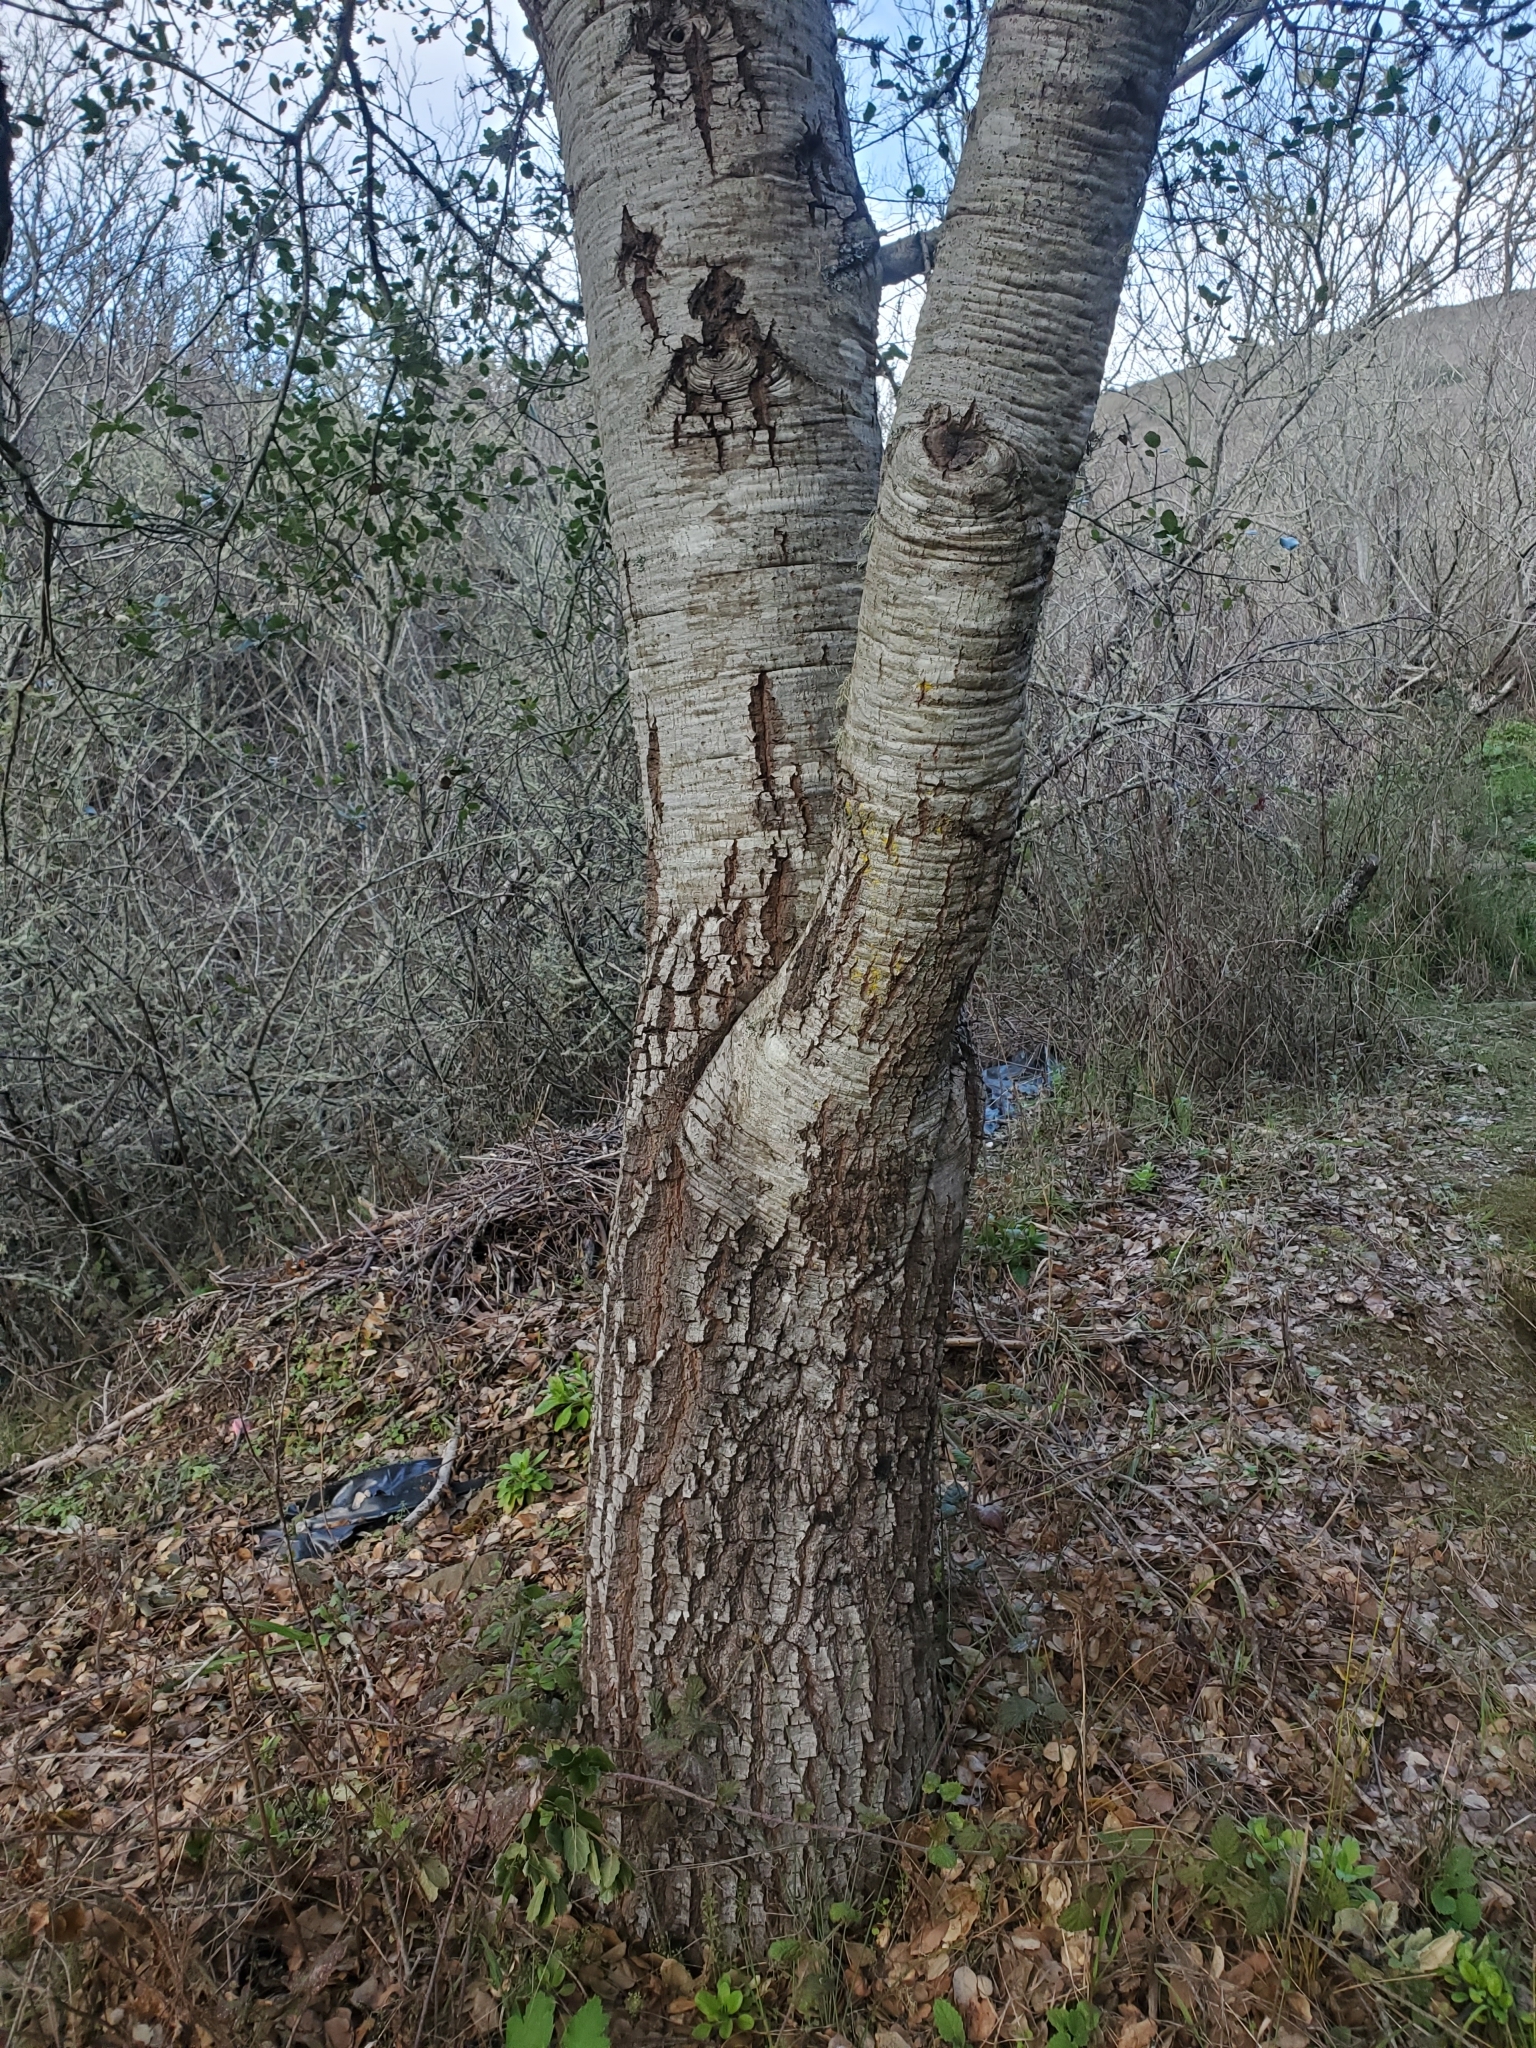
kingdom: Plantae
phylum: Tracheophyta
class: Magnoliopsida
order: Fagales
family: Fagaceae
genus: Quercus
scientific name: Quercus agrifolia
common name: California live oak
